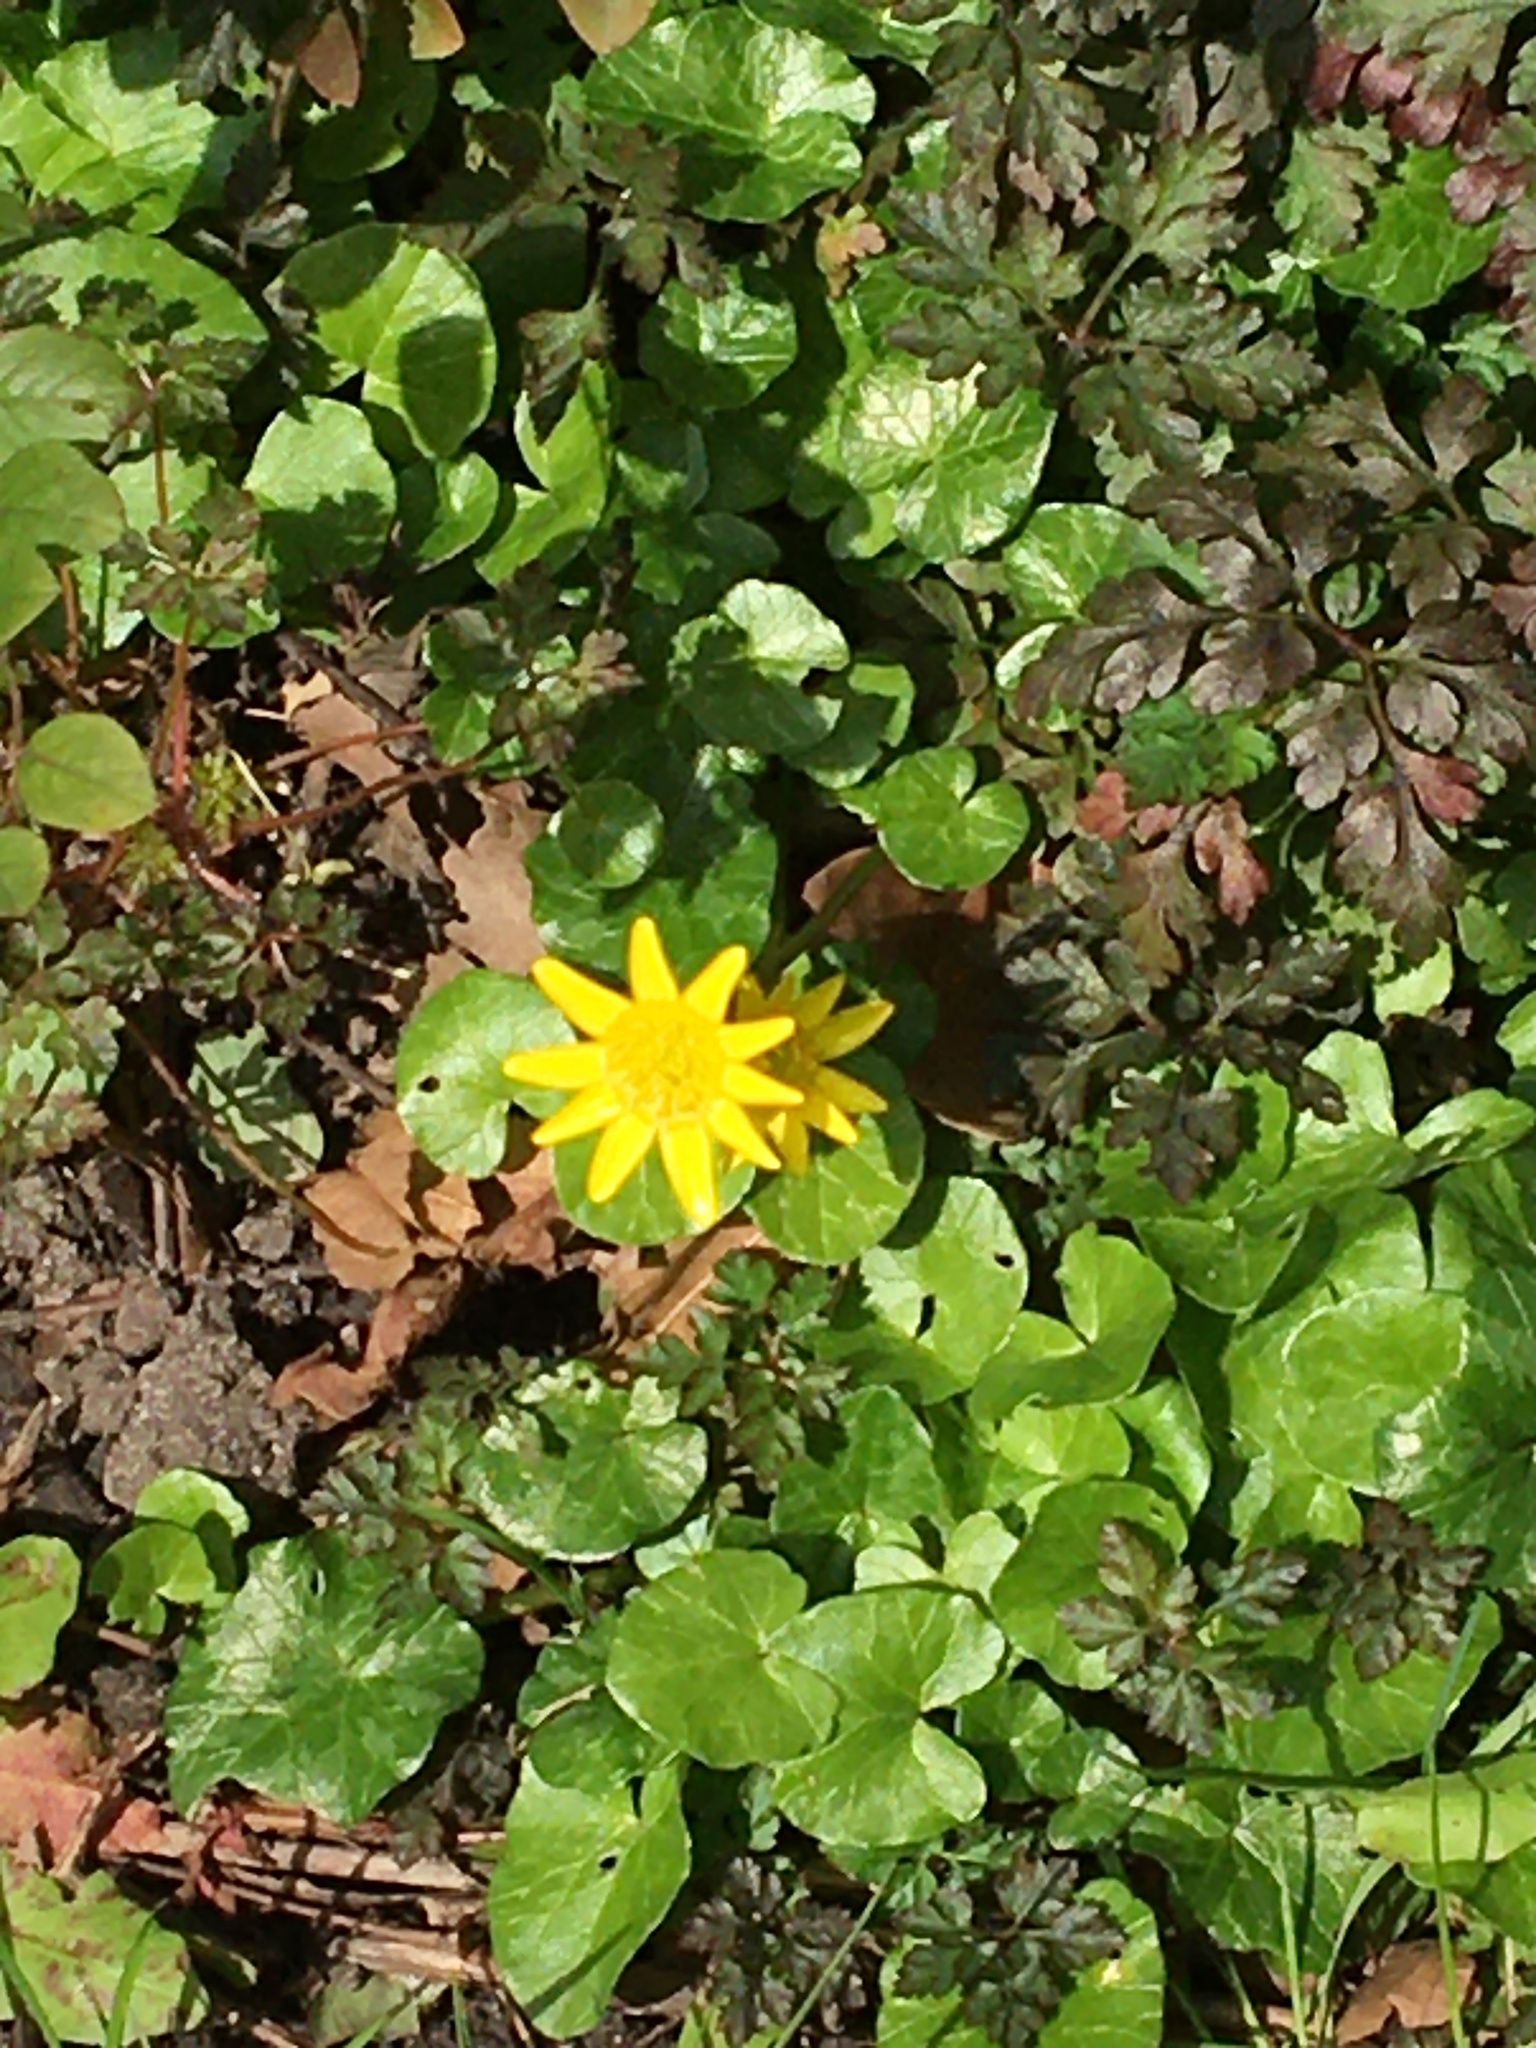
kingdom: Plantae
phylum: Tracheophyta
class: Magnoliopsida
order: Ranunculales
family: Ranunculaceae
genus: Ficaria
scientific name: Ficaria verna
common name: Lesser celandine
